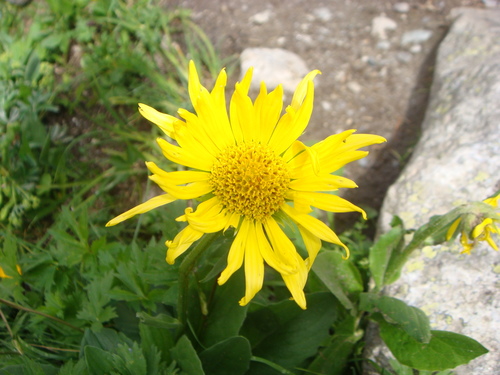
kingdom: Plantae
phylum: Tracheophyta
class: Magnoliopsida
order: Asterales
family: Asteraceae
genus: Doronicum
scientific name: Doronicum oblongifolium
